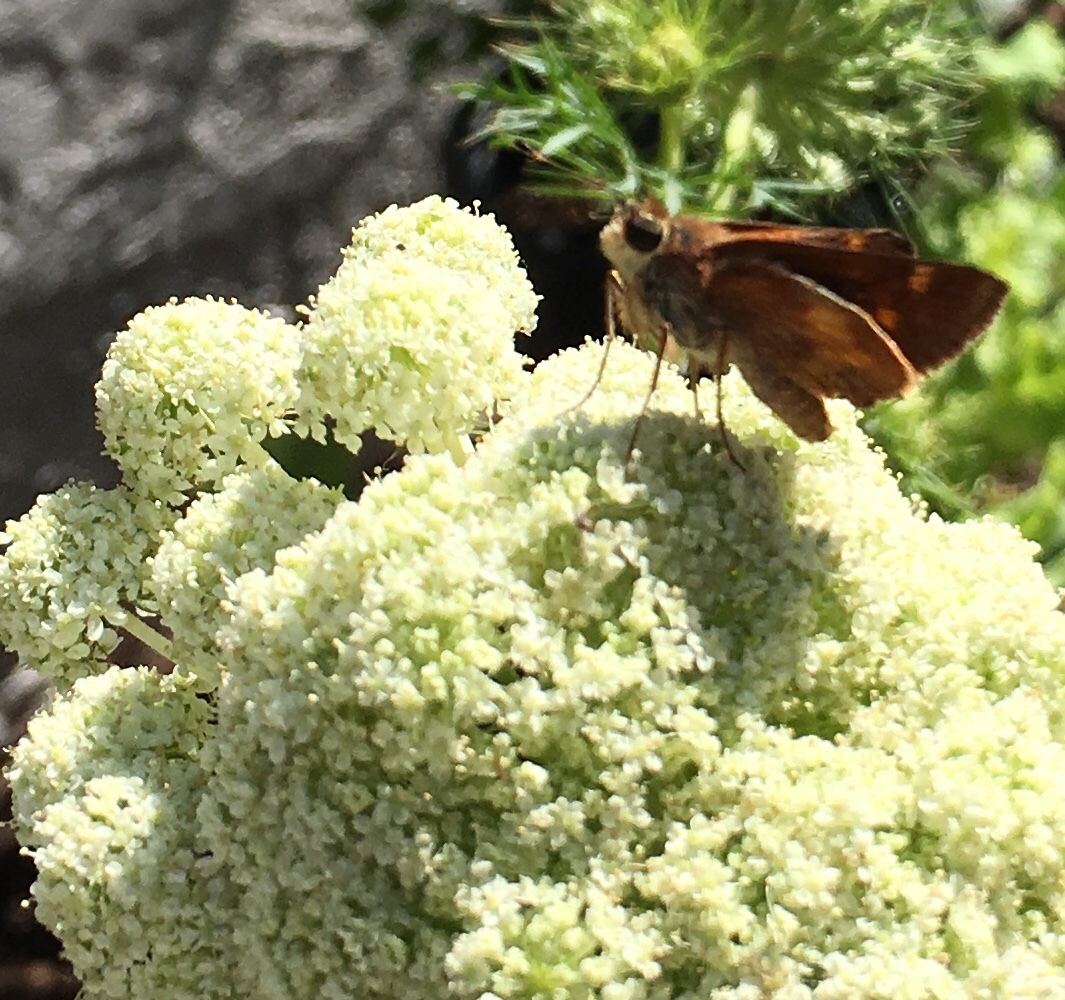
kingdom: Animalia
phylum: Arthropoda
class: Insecta
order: Lepidoptera
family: Hesperiidae
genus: Lon
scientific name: Lon melane
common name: Umber skipper
